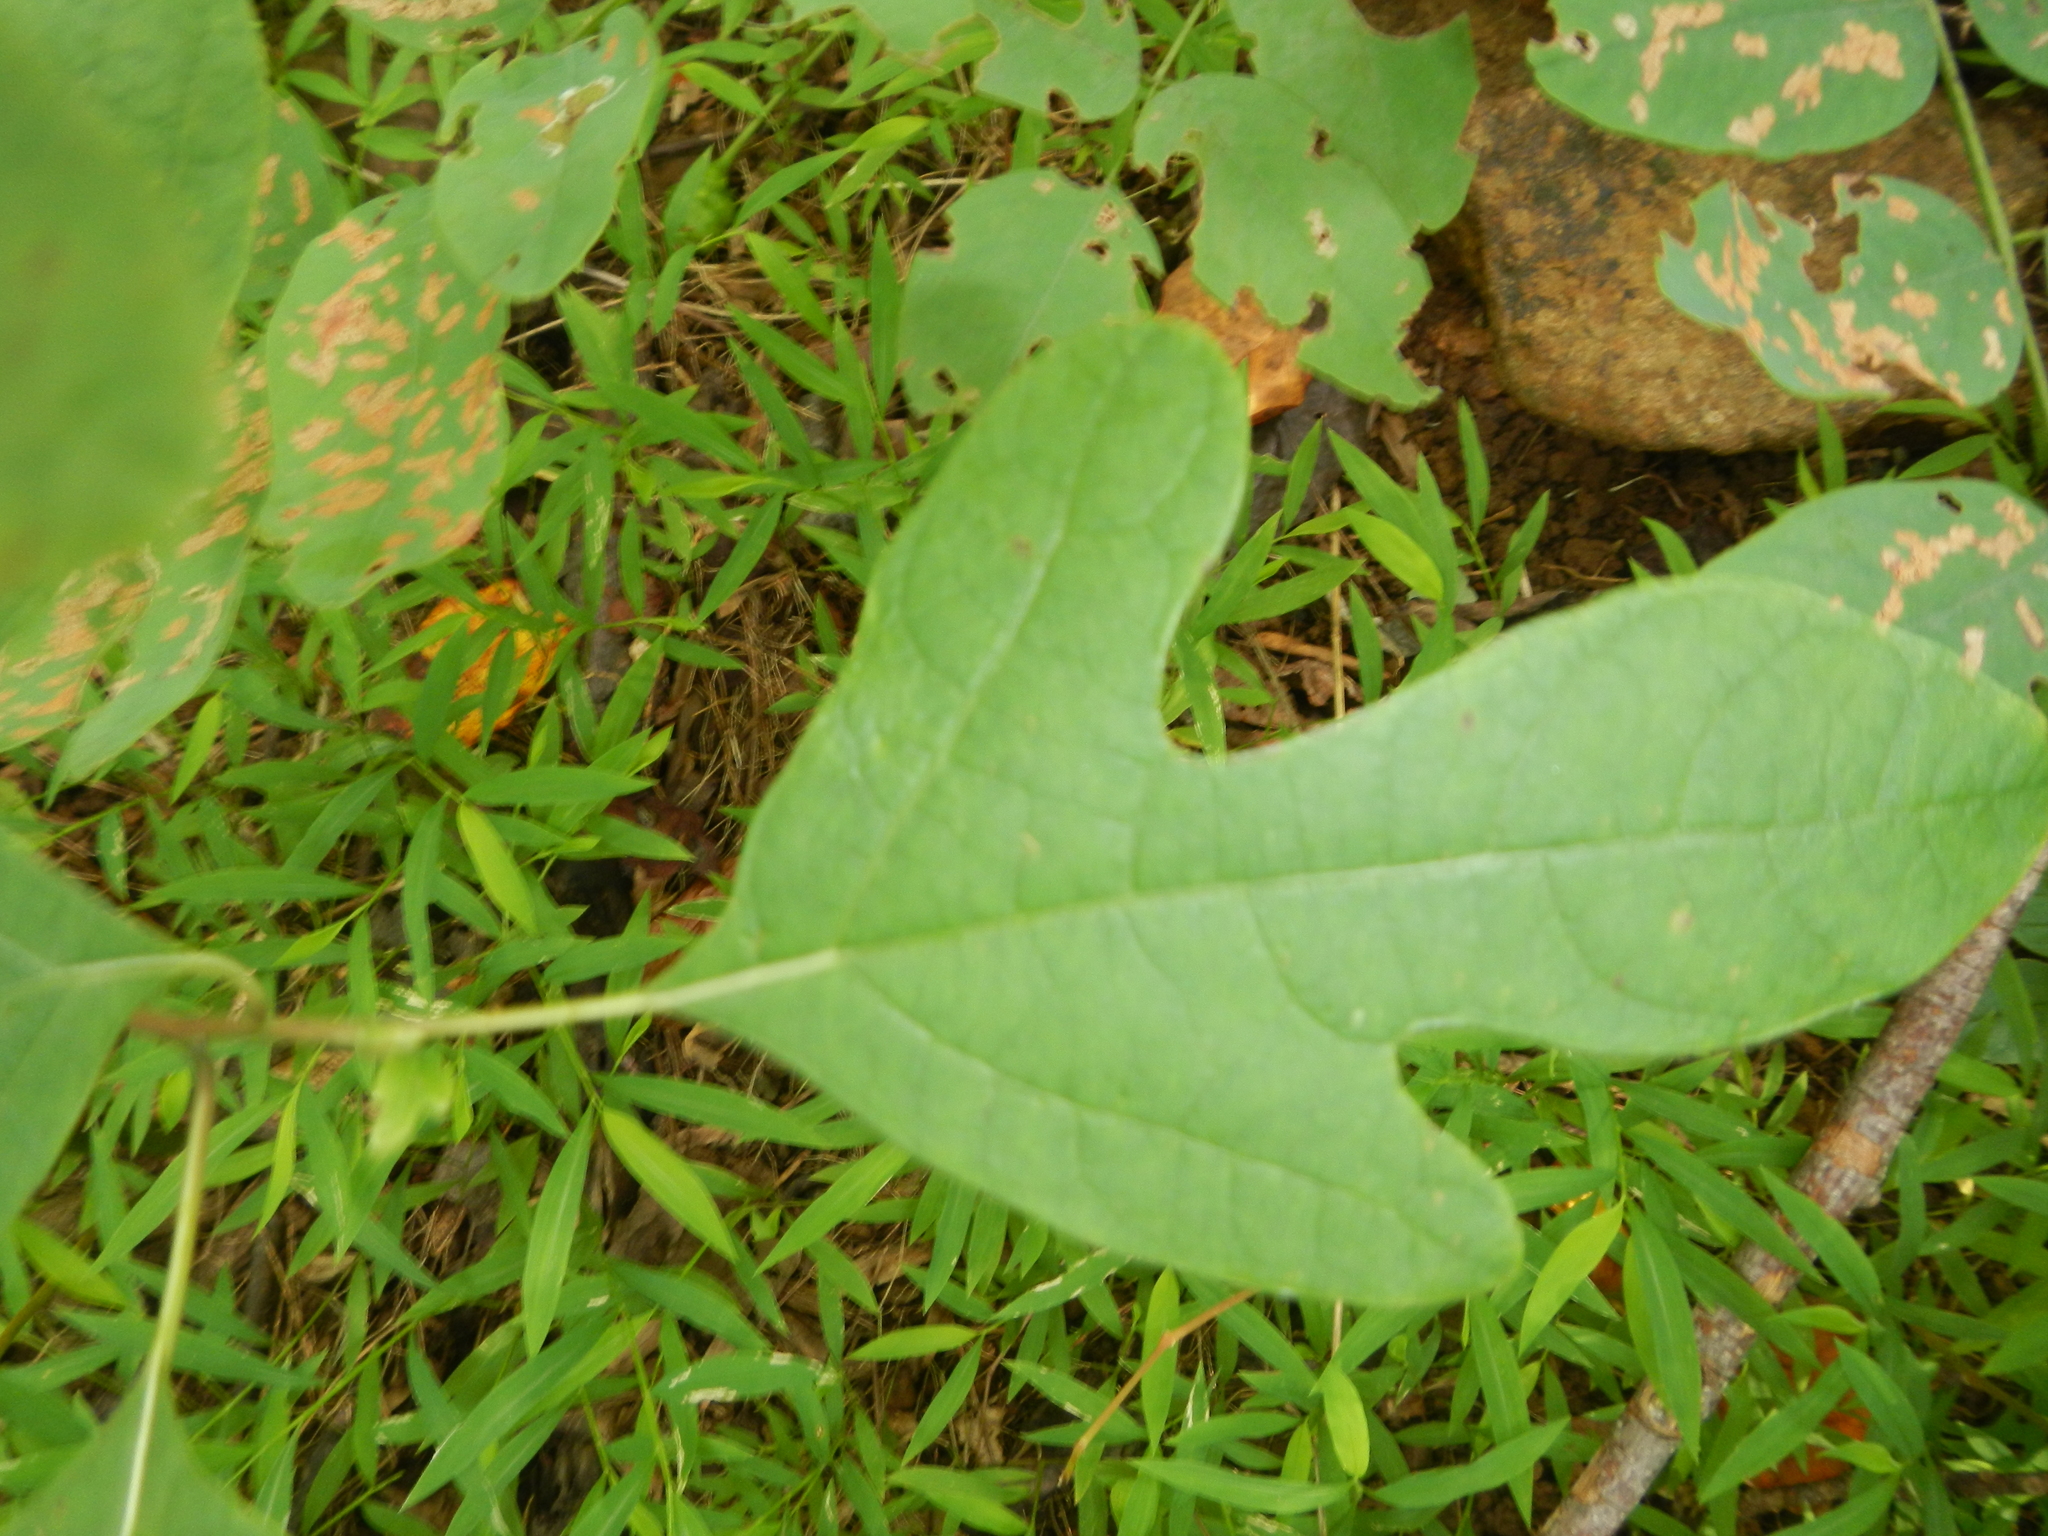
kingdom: Plantae
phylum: Tracheophyta
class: Magnoliopsida
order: Laurales
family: Lauraceae
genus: Sassafras
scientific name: Sassafras albidum
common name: Sassafras
